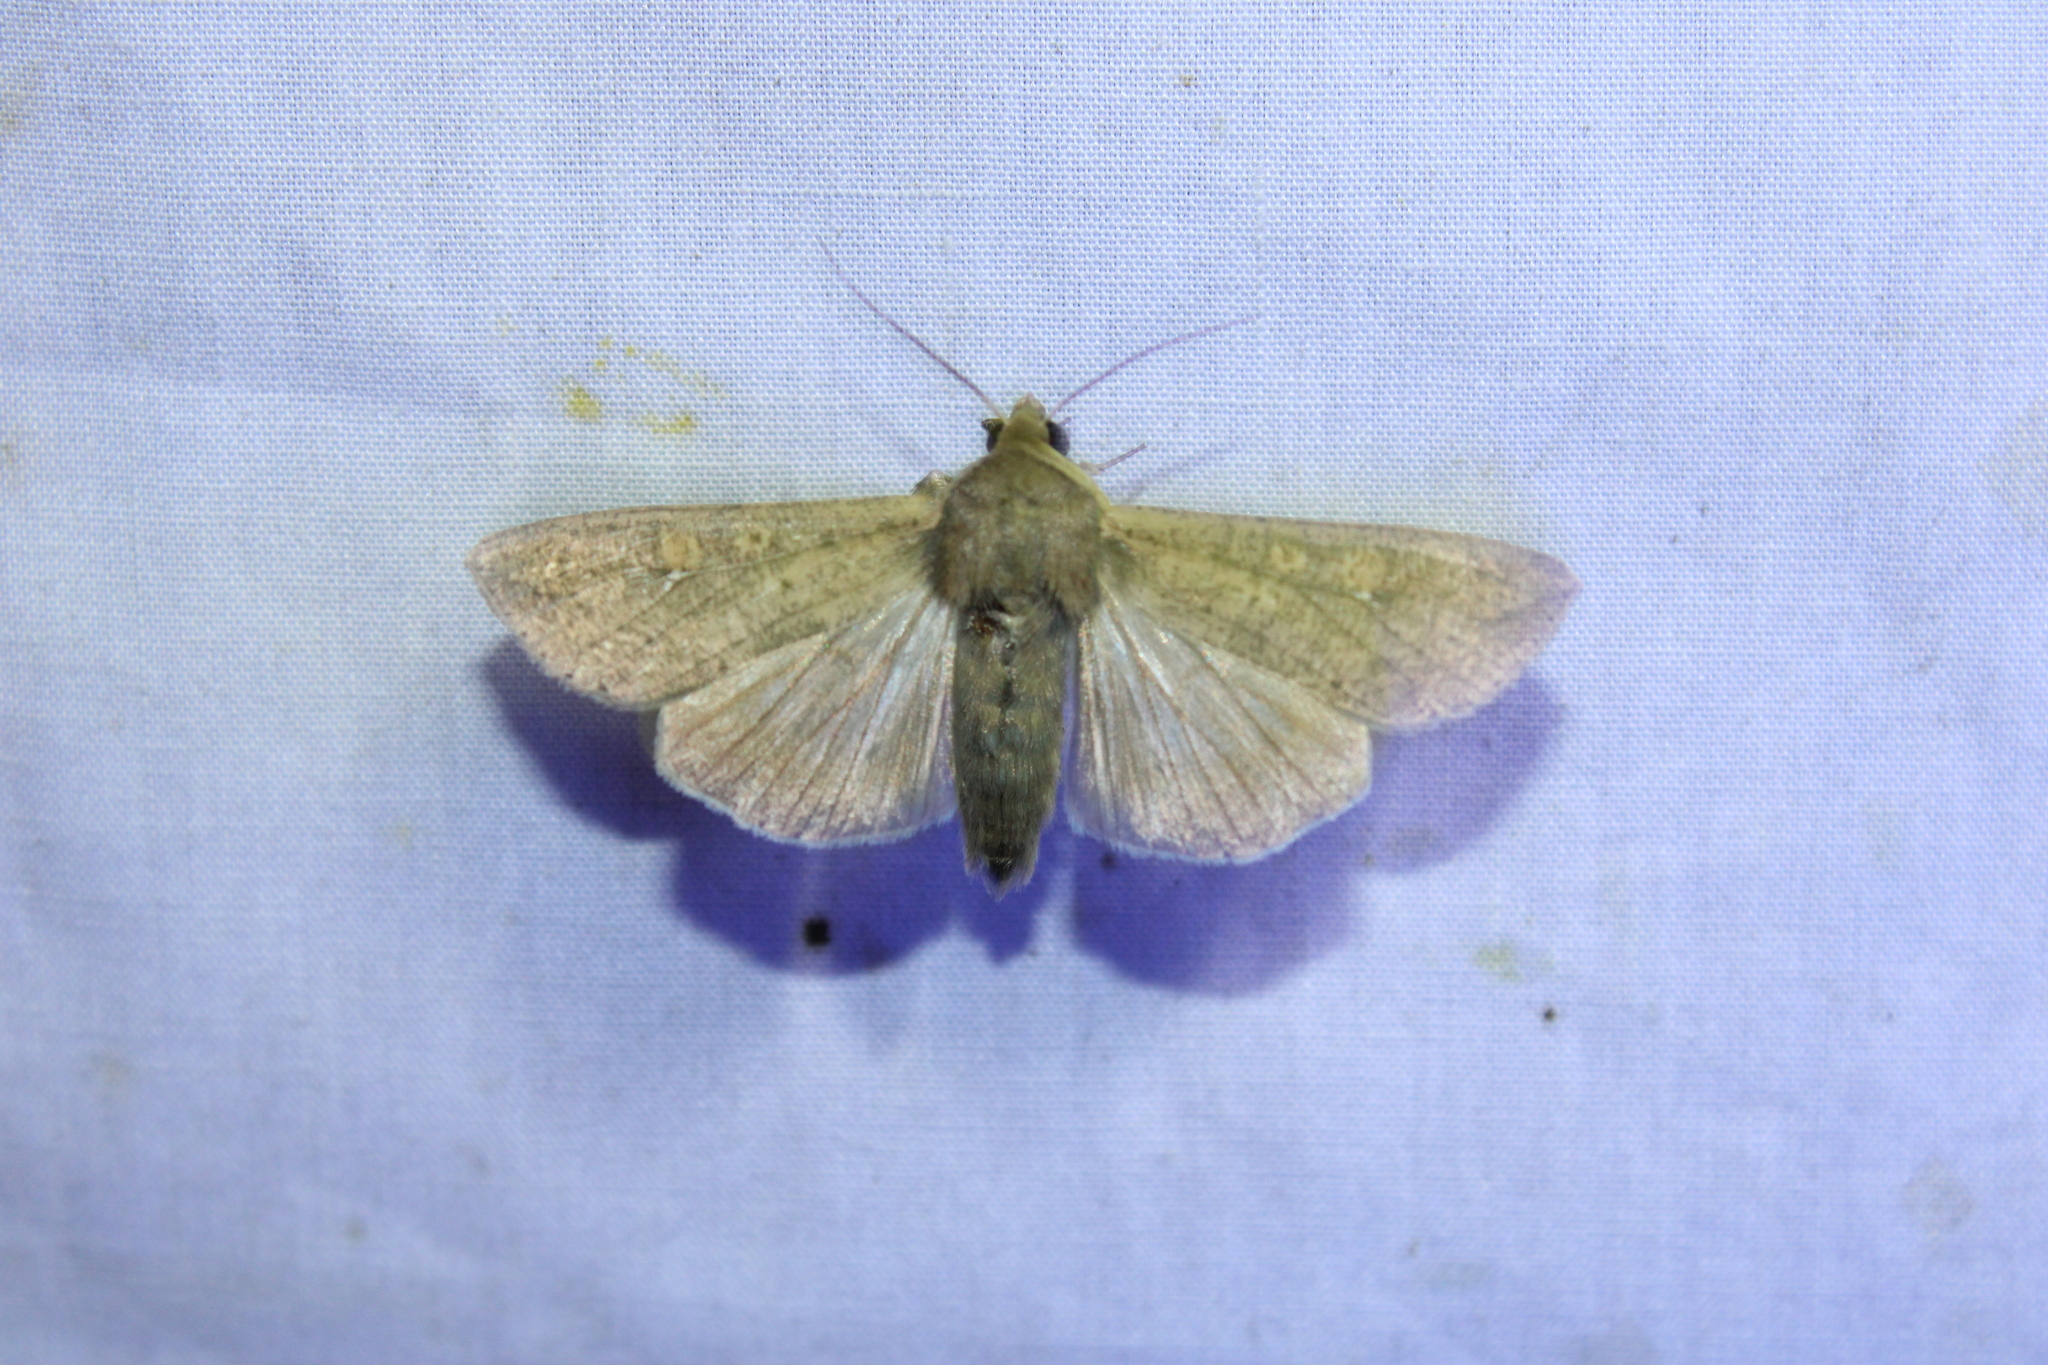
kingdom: Animalia
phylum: Arthropoda
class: Insecta
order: Lepidoptera
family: Noctuidae
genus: Mythimna
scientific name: Mythimna unipuncta
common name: White-speck
